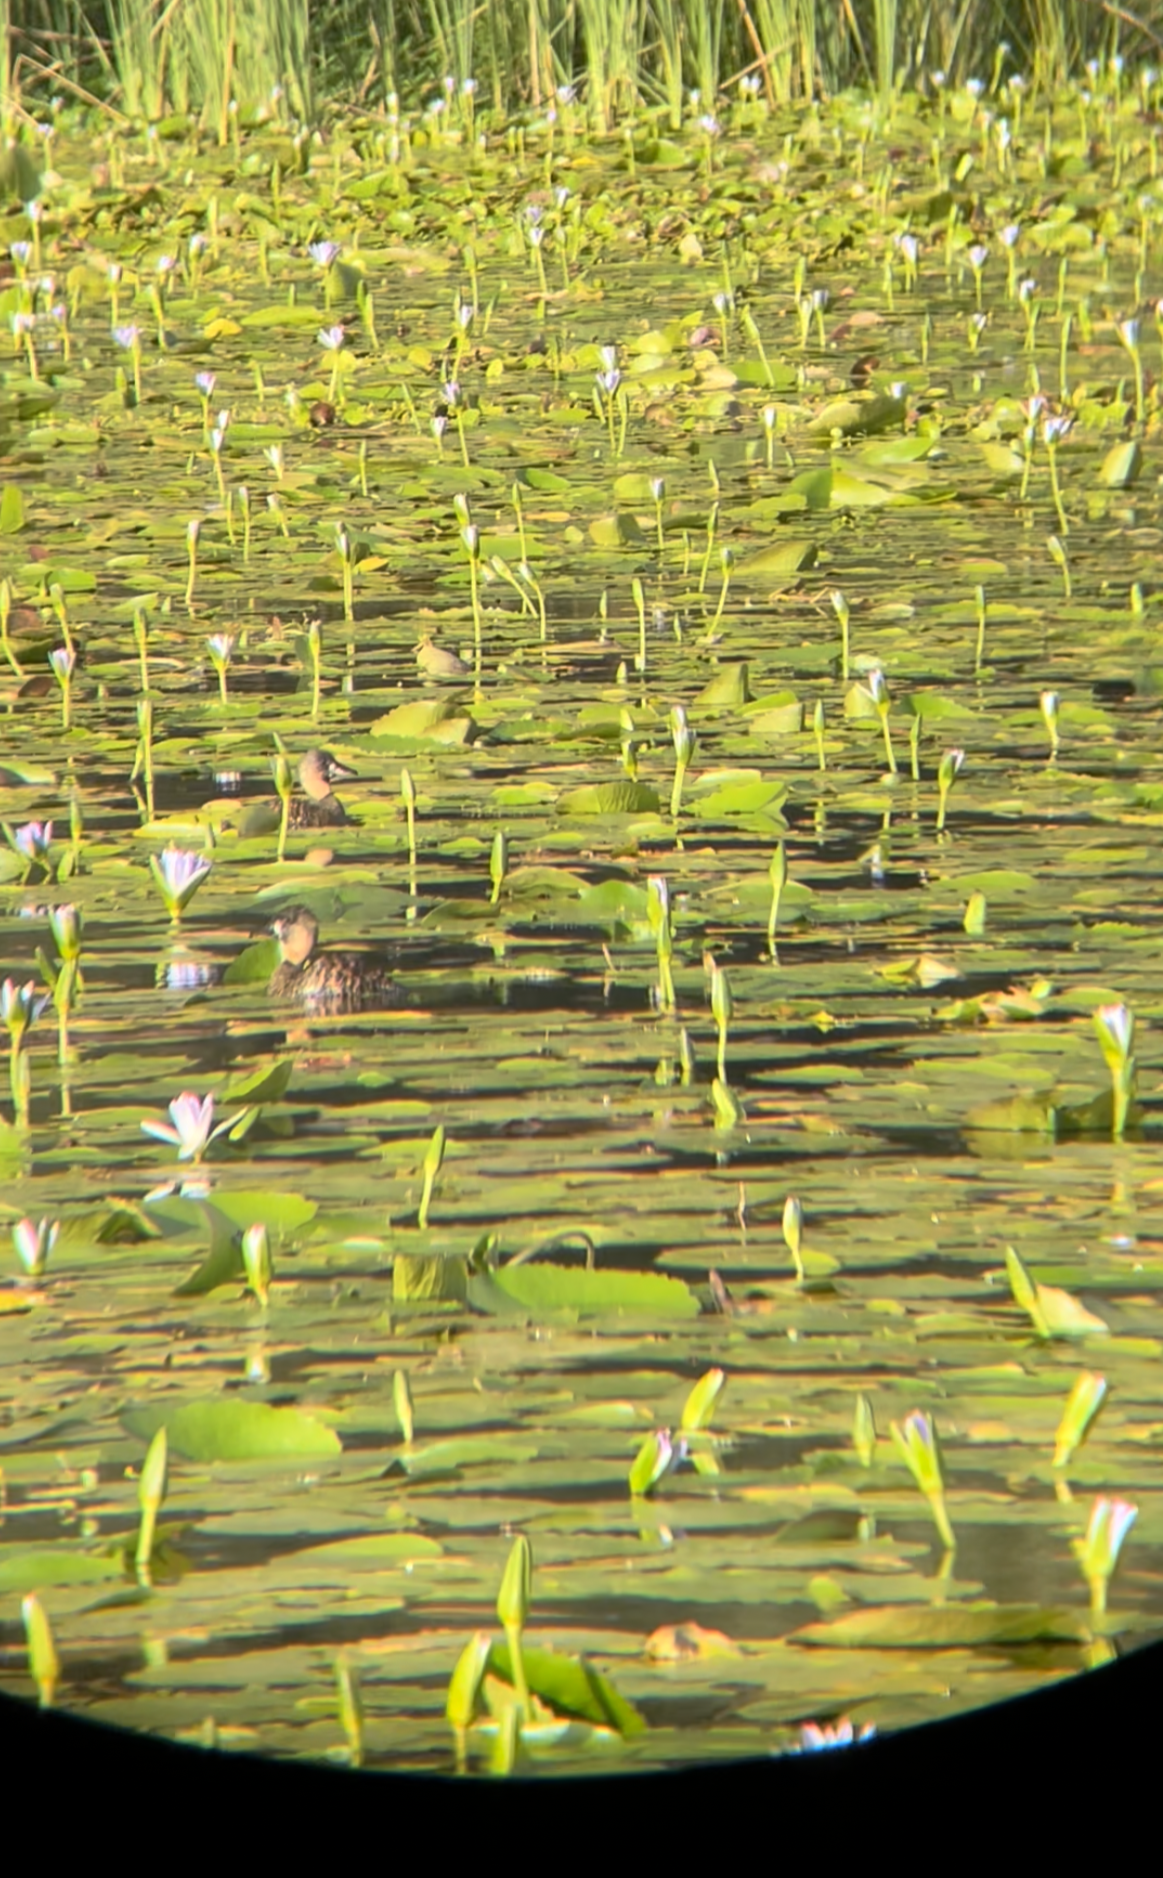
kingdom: Animalia
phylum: Chordata
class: Aves
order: Anseriformes
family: Anatidae
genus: Thalassornis
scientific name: Thalassornis leuconotus
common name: White-backed duck
